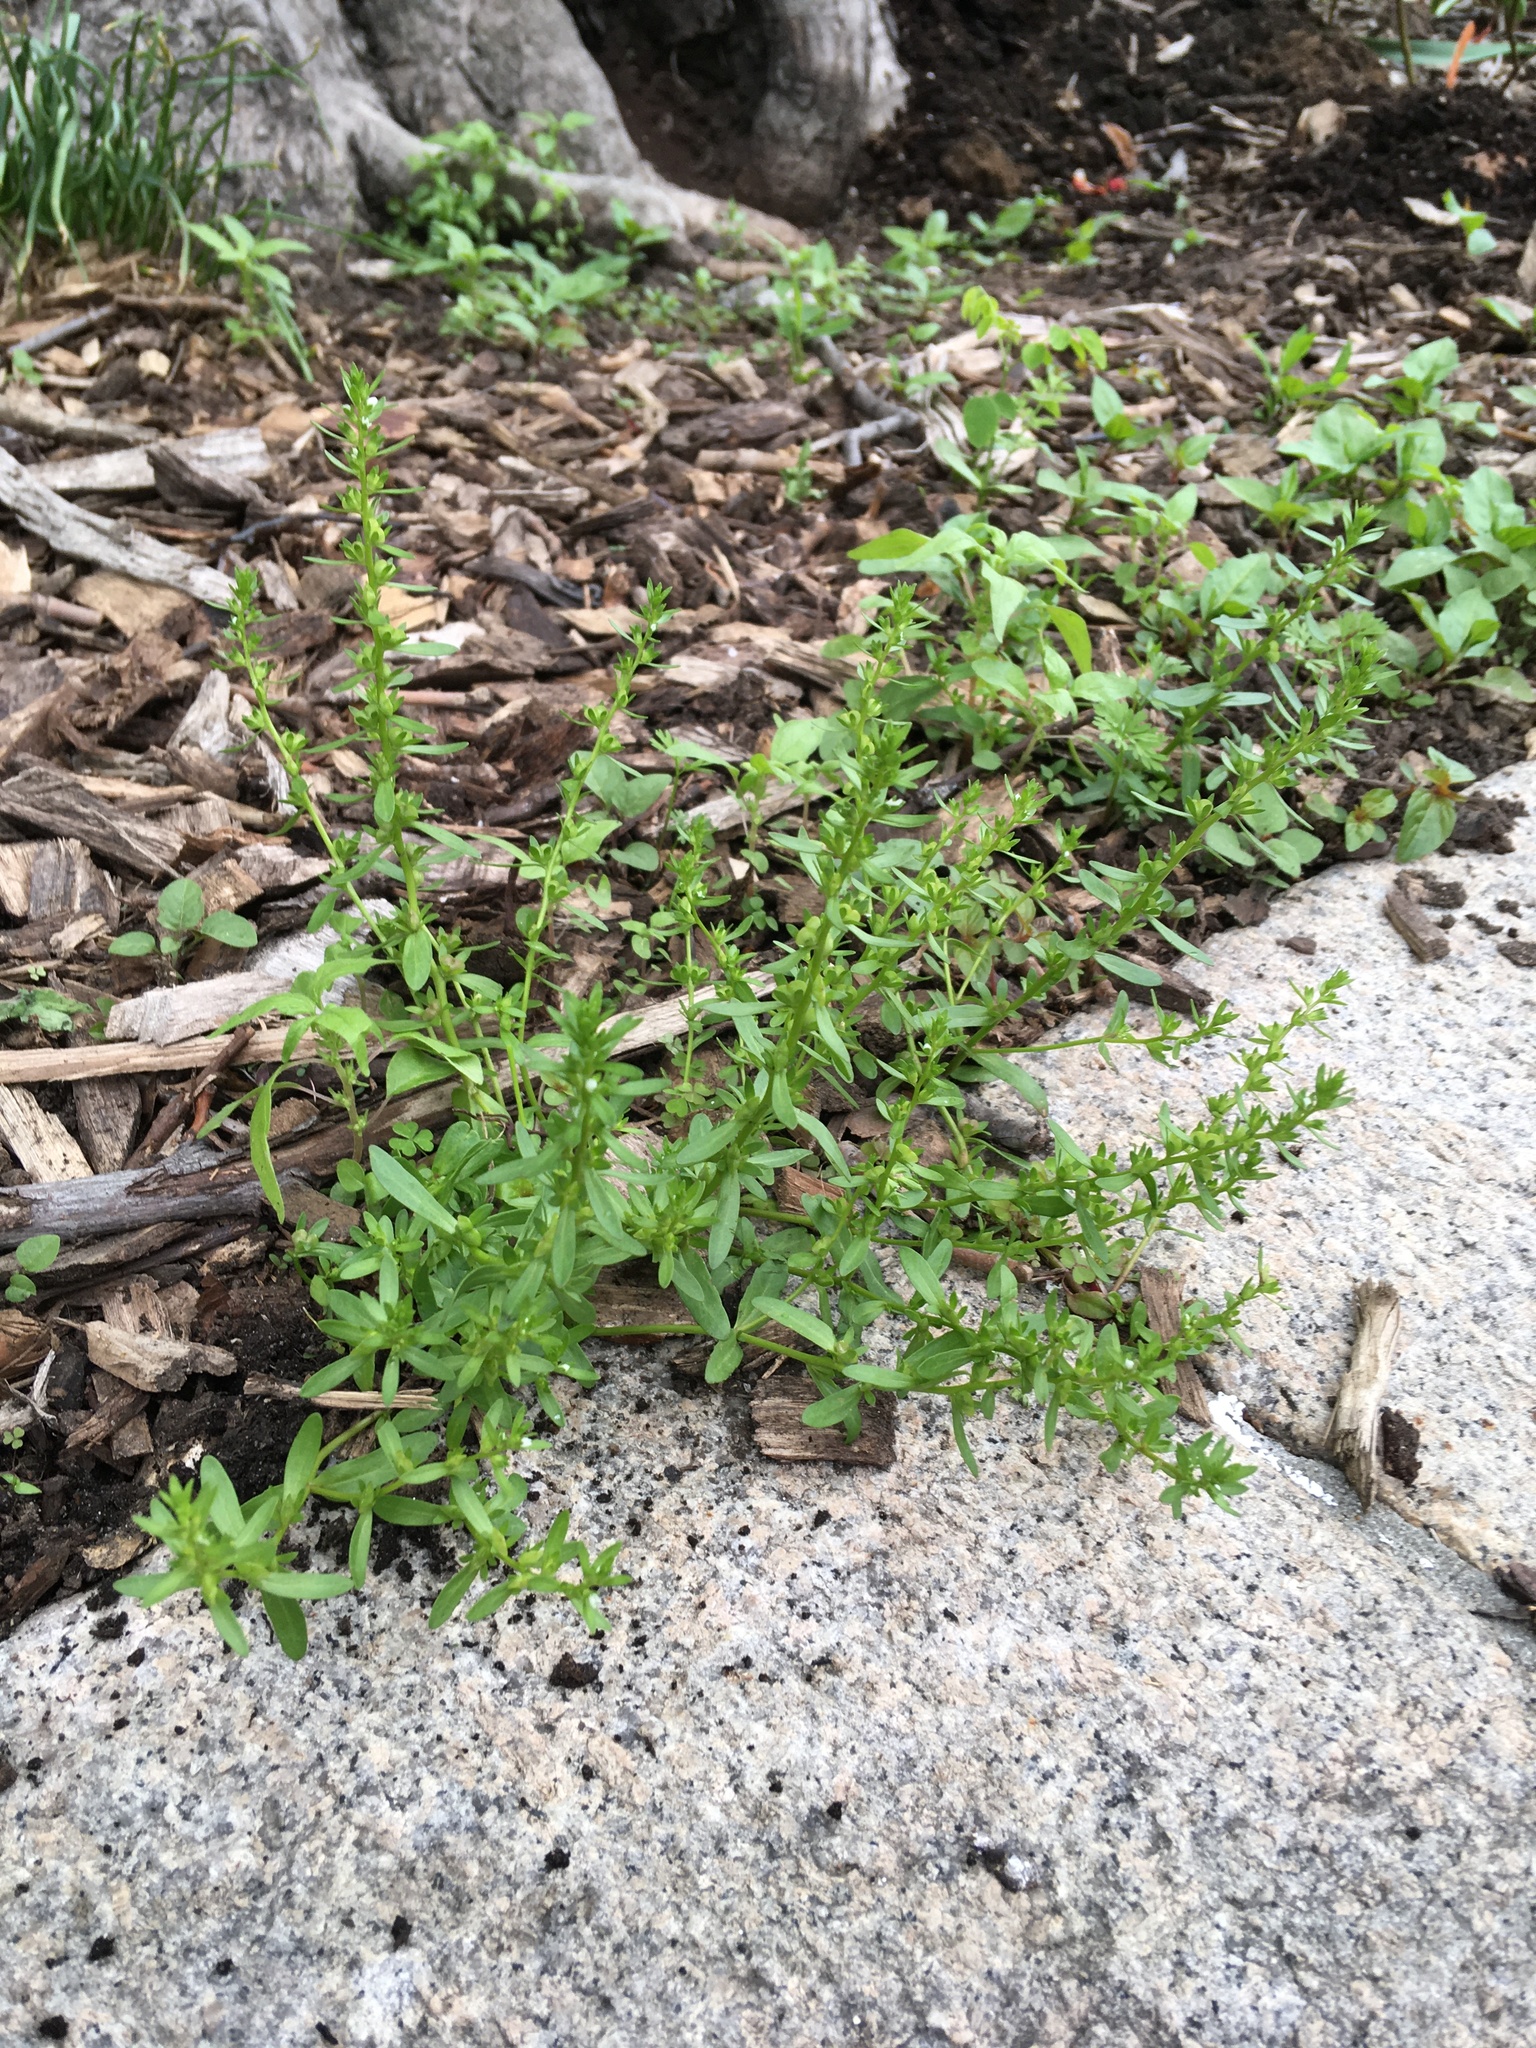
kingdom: Plantae
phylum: Tracheophyta
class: Magnoliopsida
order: Lamiales
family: Plantaginaceae
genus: Veronica
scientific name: Veronica peregrina
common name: Neckweed
